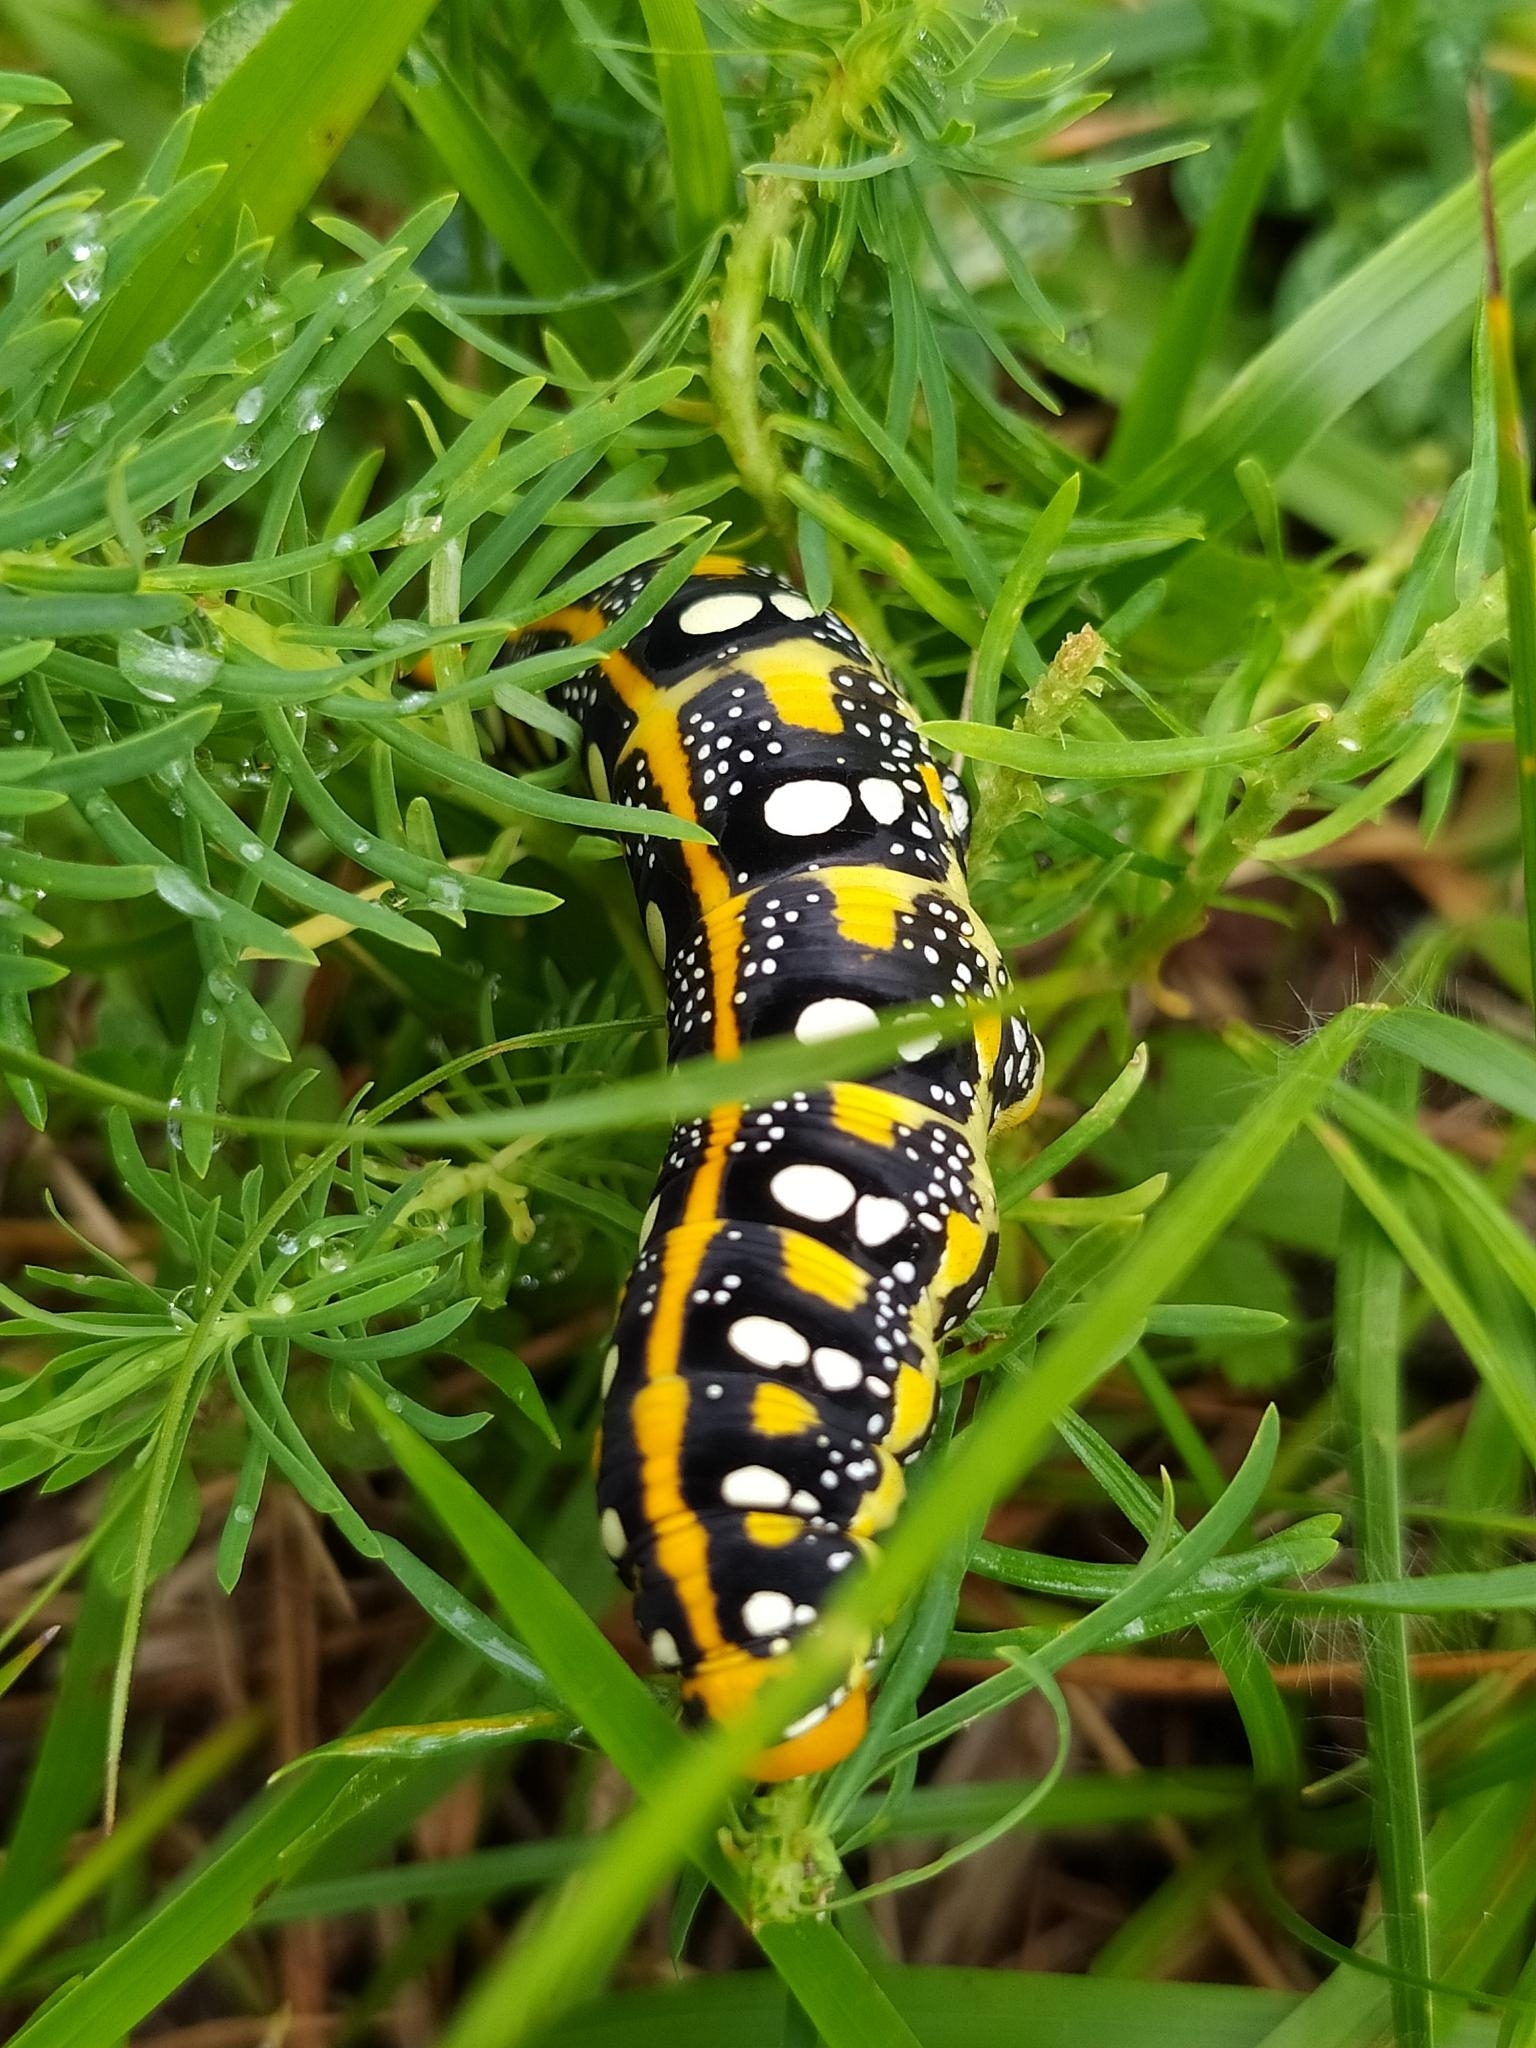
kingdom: Animalia
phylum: Arthropoda
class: Insecta
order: Lepidoptera
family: Sphingidae
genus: Hyles
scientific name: Hyles euphorbiae
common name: Spurge hawk-moth
